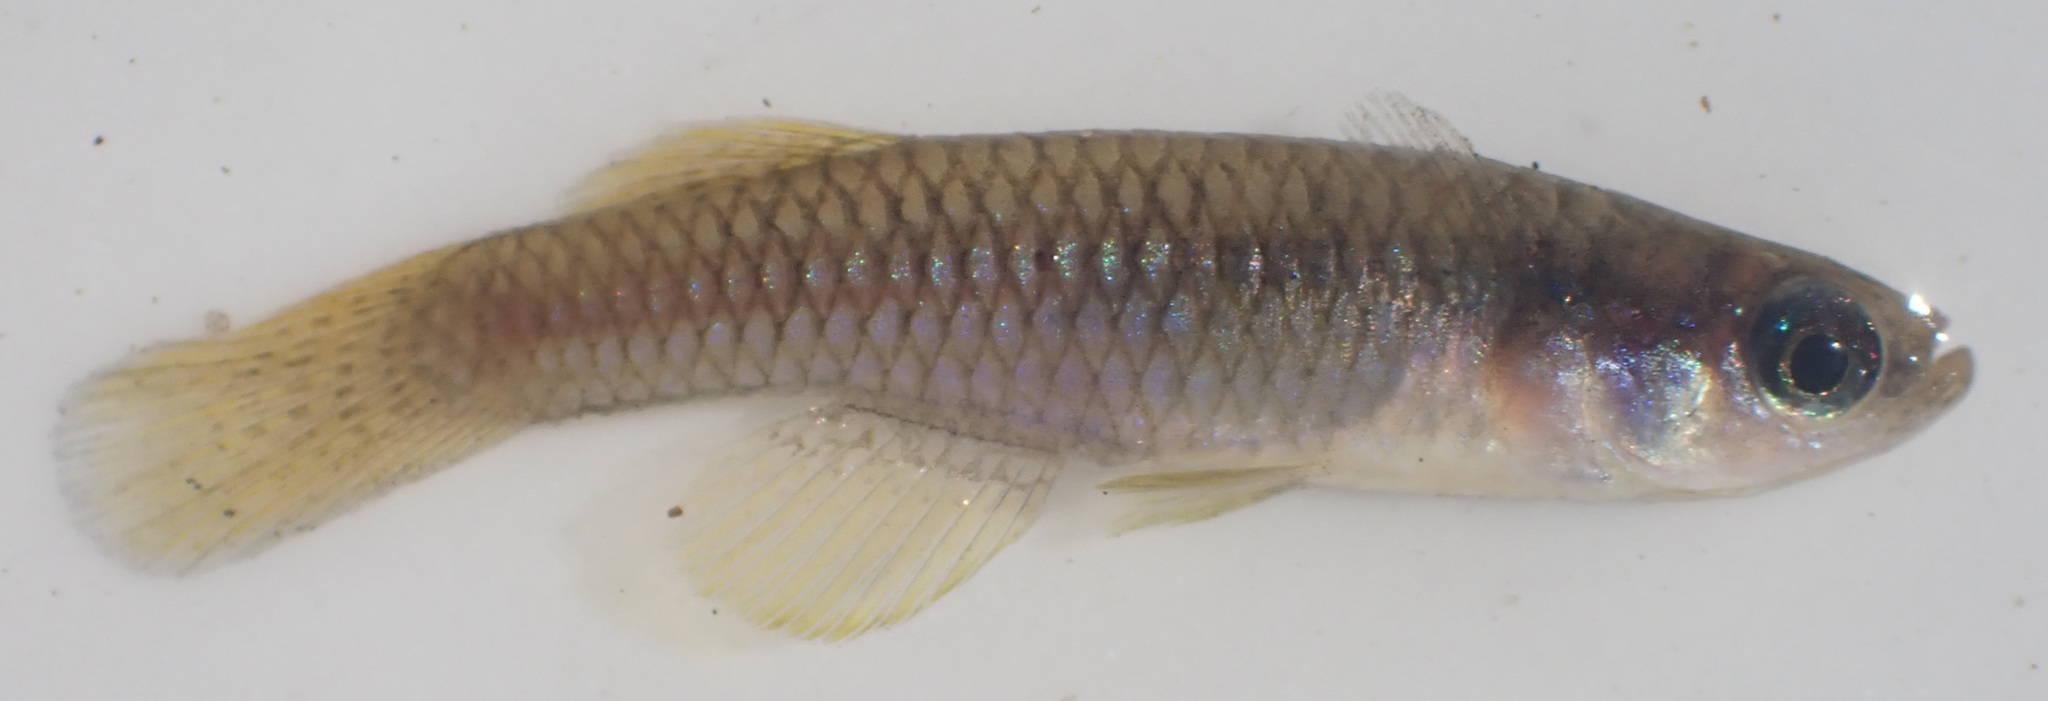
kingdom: Animalia
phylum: Chordata
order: Cyprinodontiformes
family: Poeciliidae
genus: Micropanchax
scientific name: Micropanchax hutereaui
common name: Meshscaled topminnow
